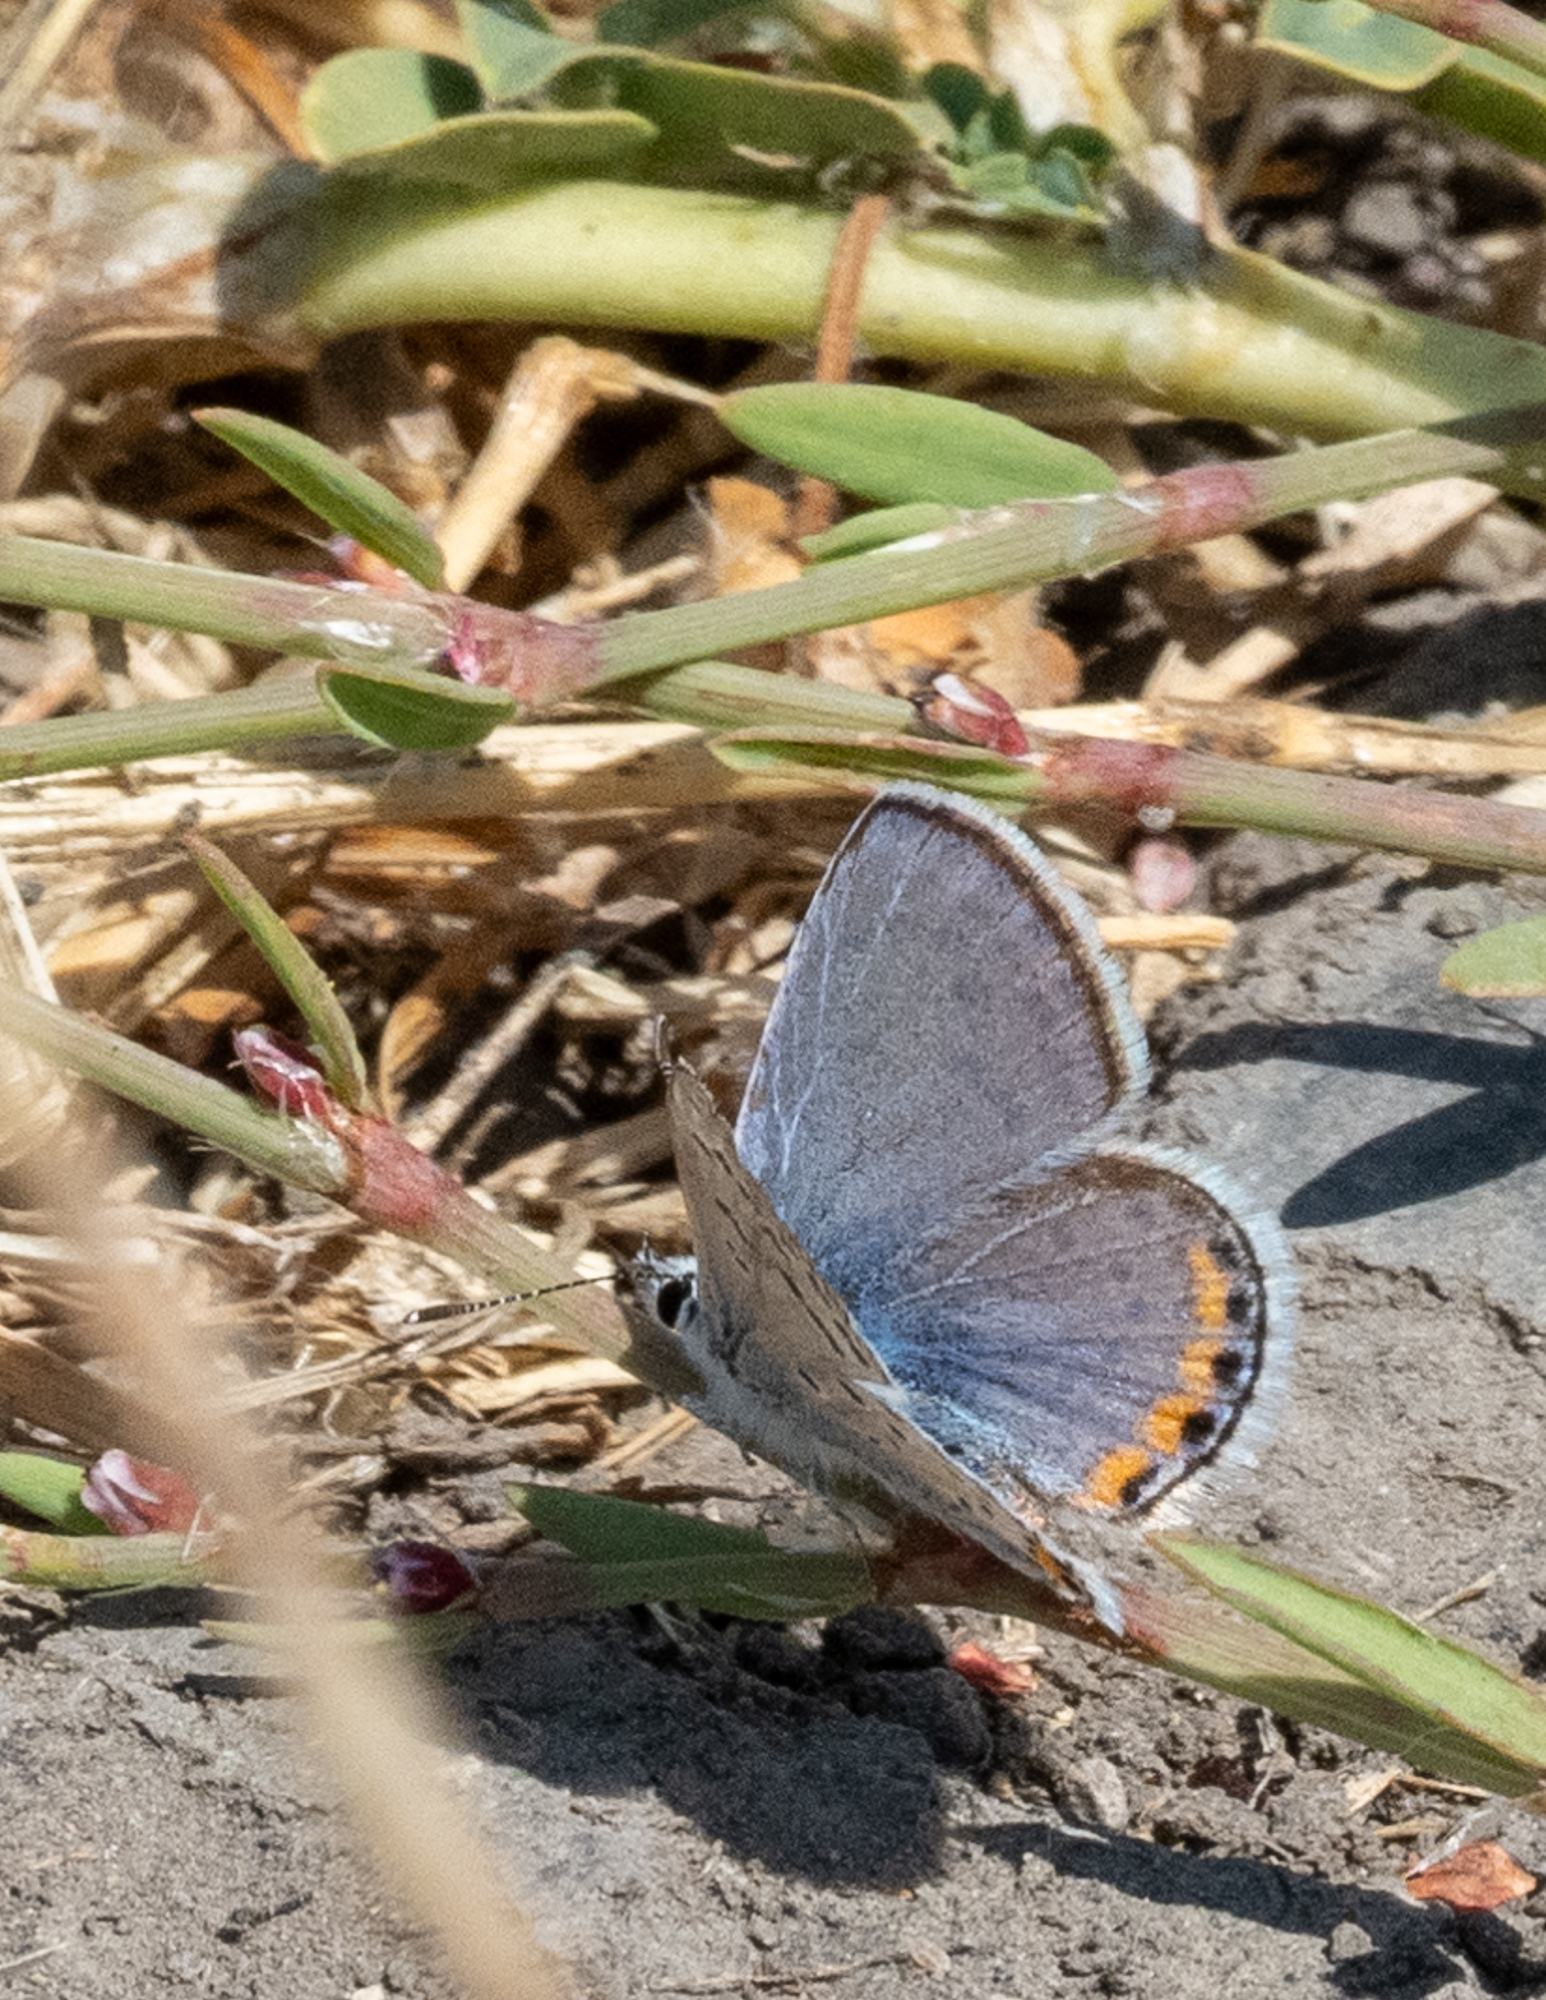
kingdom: Animalia
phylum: Arthropoda
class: Insecta
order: Lepidoptera
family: Lycaenidae
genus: Icaricia
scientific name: Icaricia acmon
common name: Acmon blue
